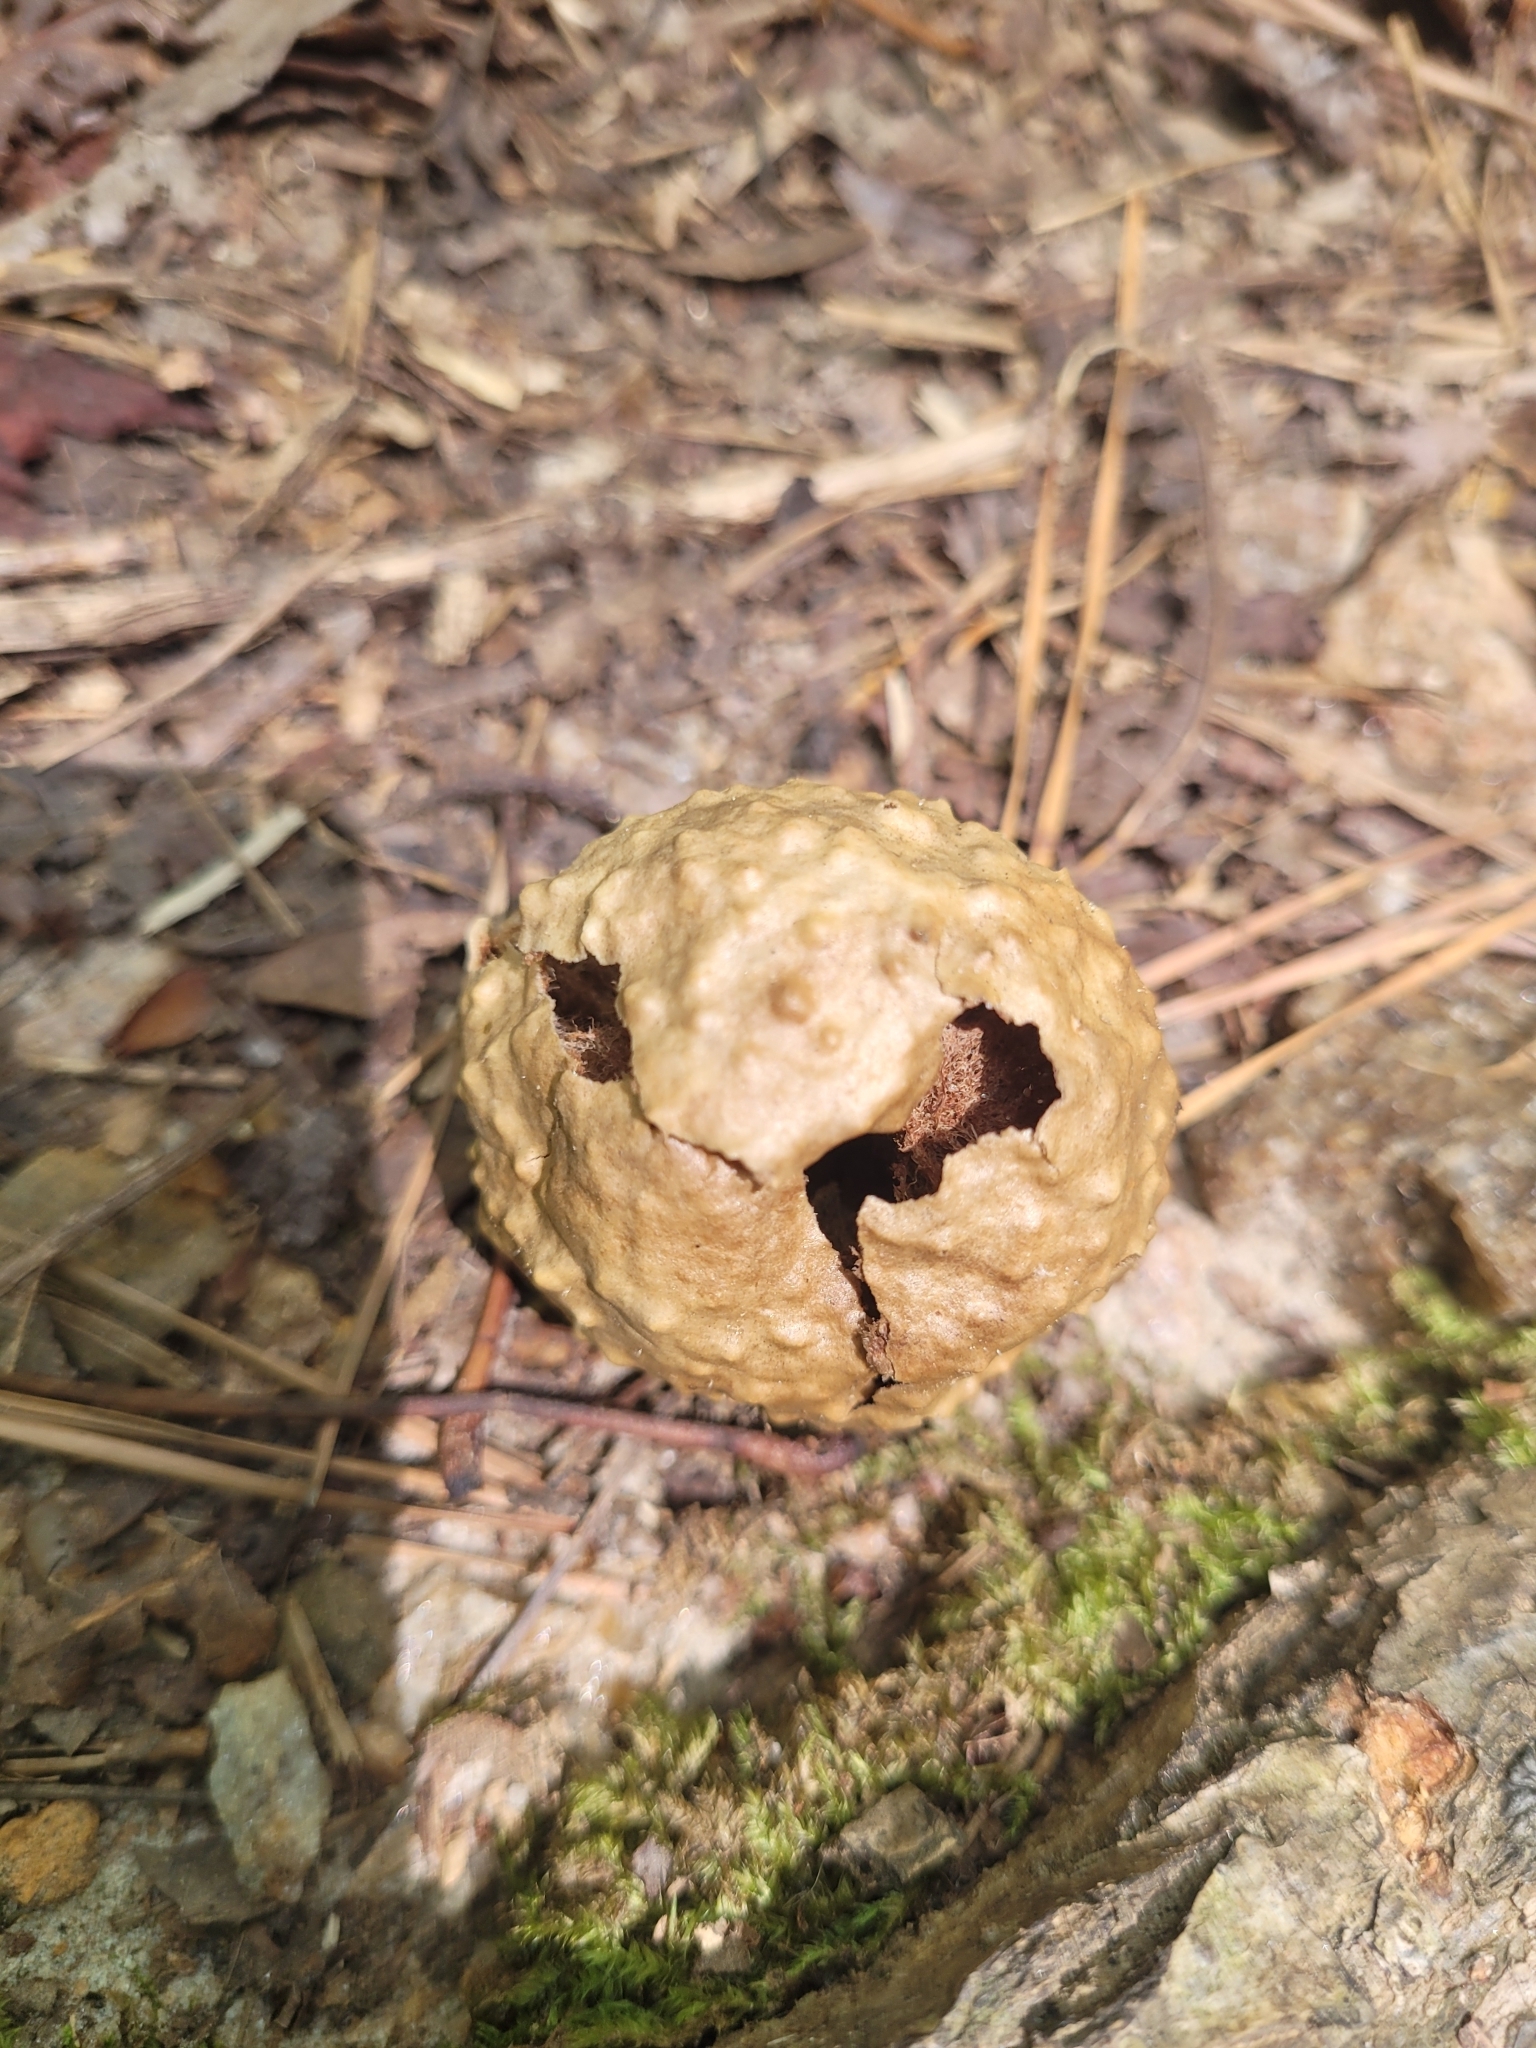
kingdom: Animalia
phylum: Arthropoda
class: Insecta
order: Hymenoptera
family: Cynipidae
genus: Amphibolips
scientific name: Amphibolips
